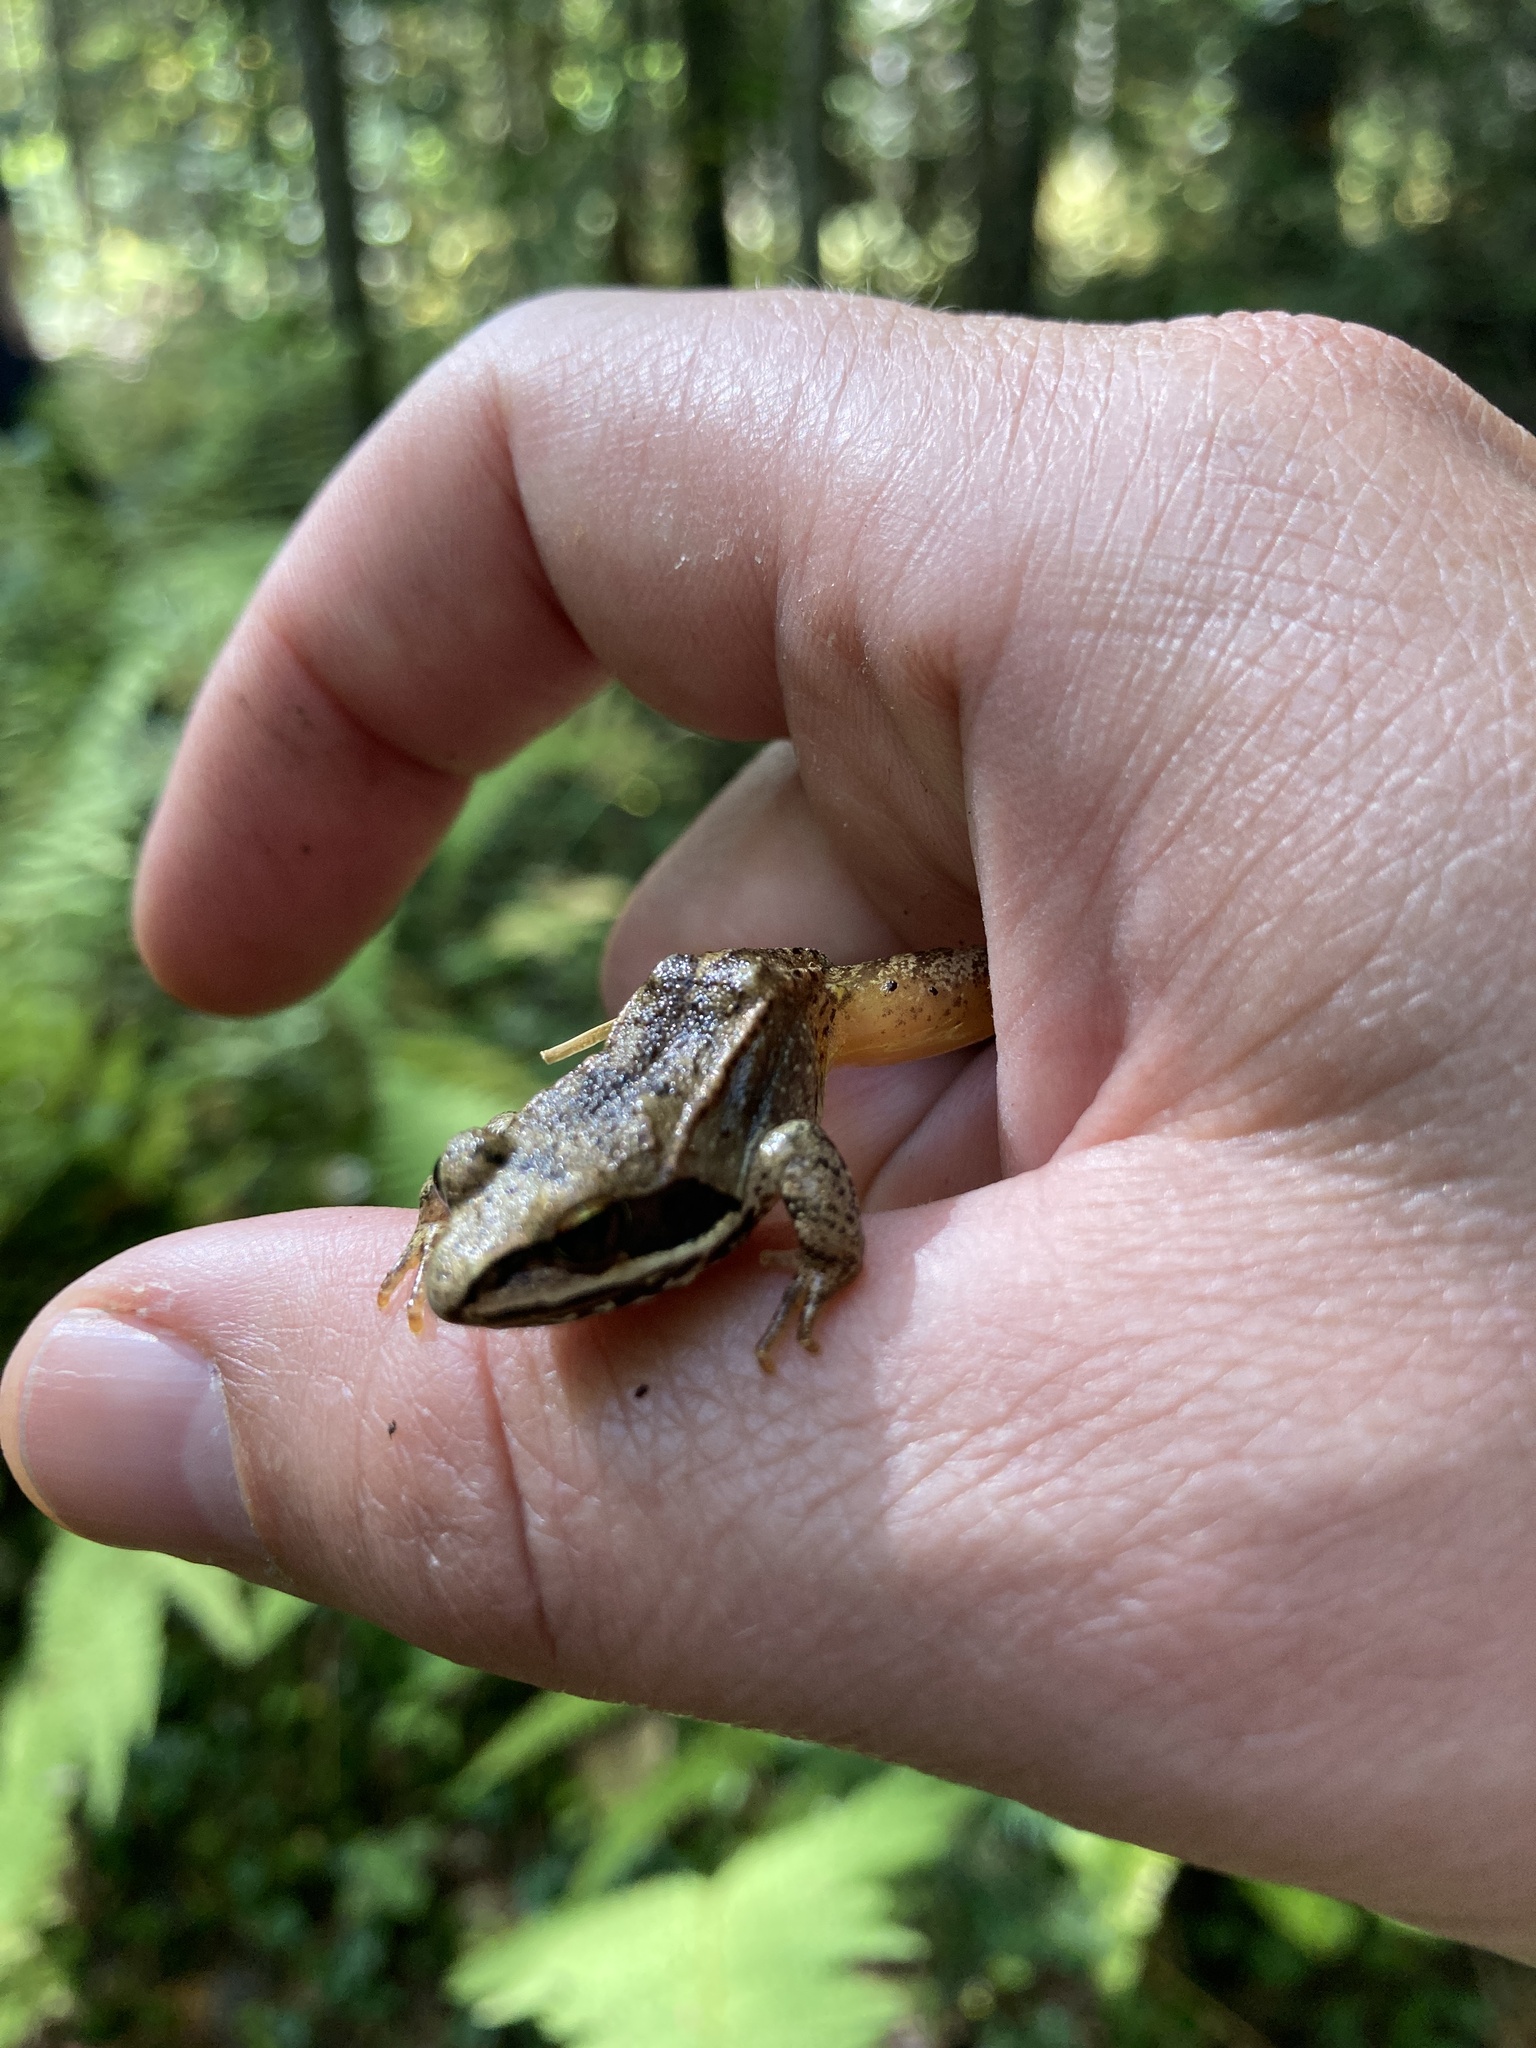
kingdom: Animalia
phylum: Chordata
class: Amphibia
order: Anura
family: Ranidae
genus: Lithobates
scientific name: Lithobates sylvaticus
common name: Wood frog
